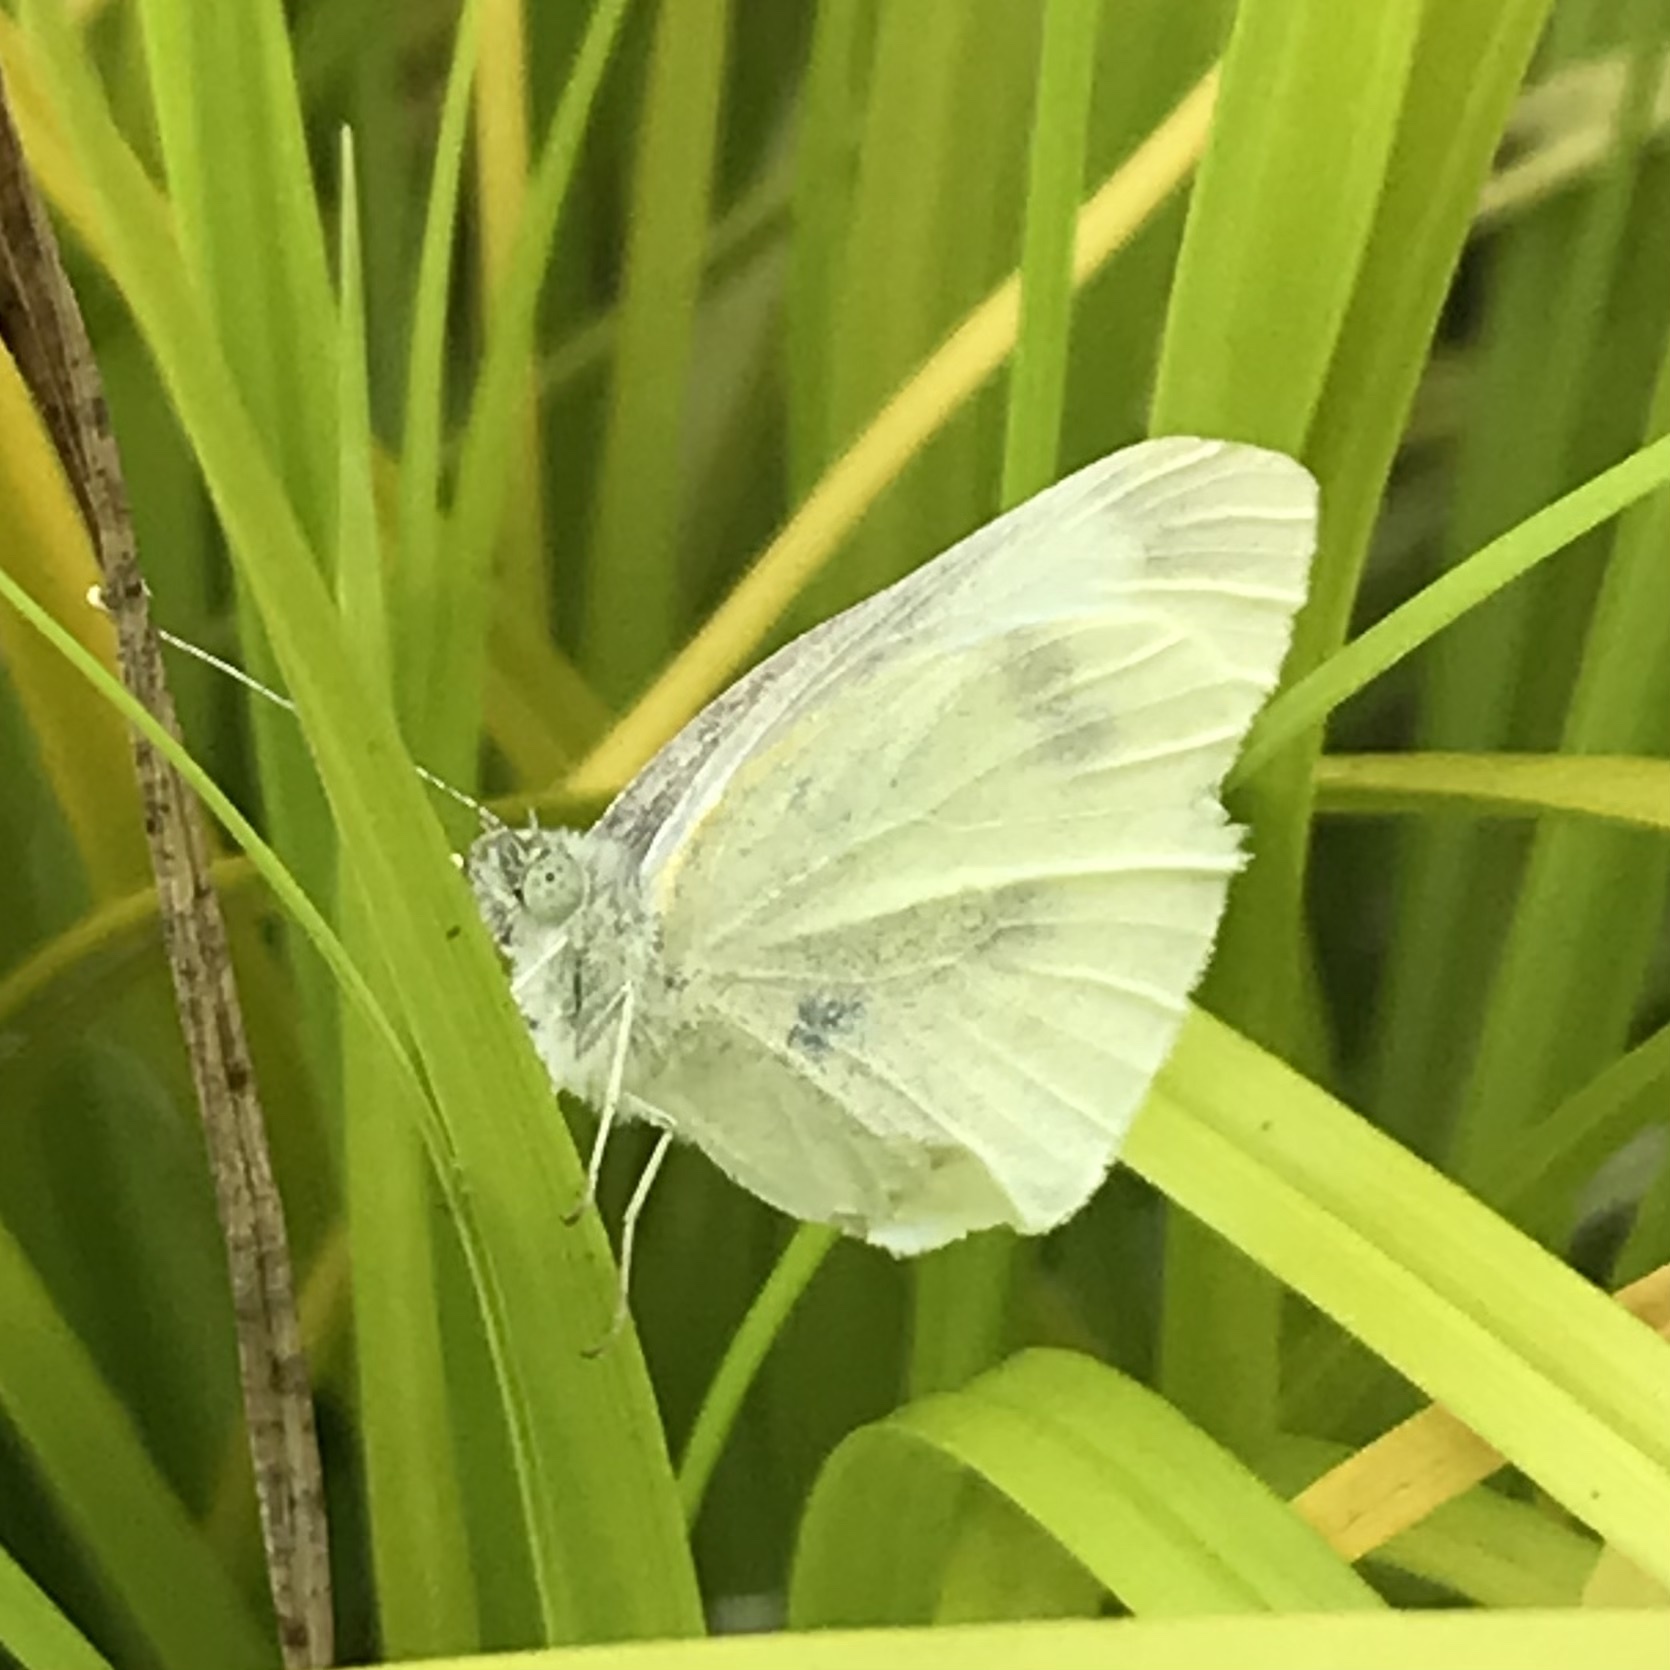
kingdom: Animalia
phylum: Arthropoda
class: Insecta
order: Lepidoptera
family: Pieridae
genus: Pieris
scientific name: Pieris rapae
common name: Small white
